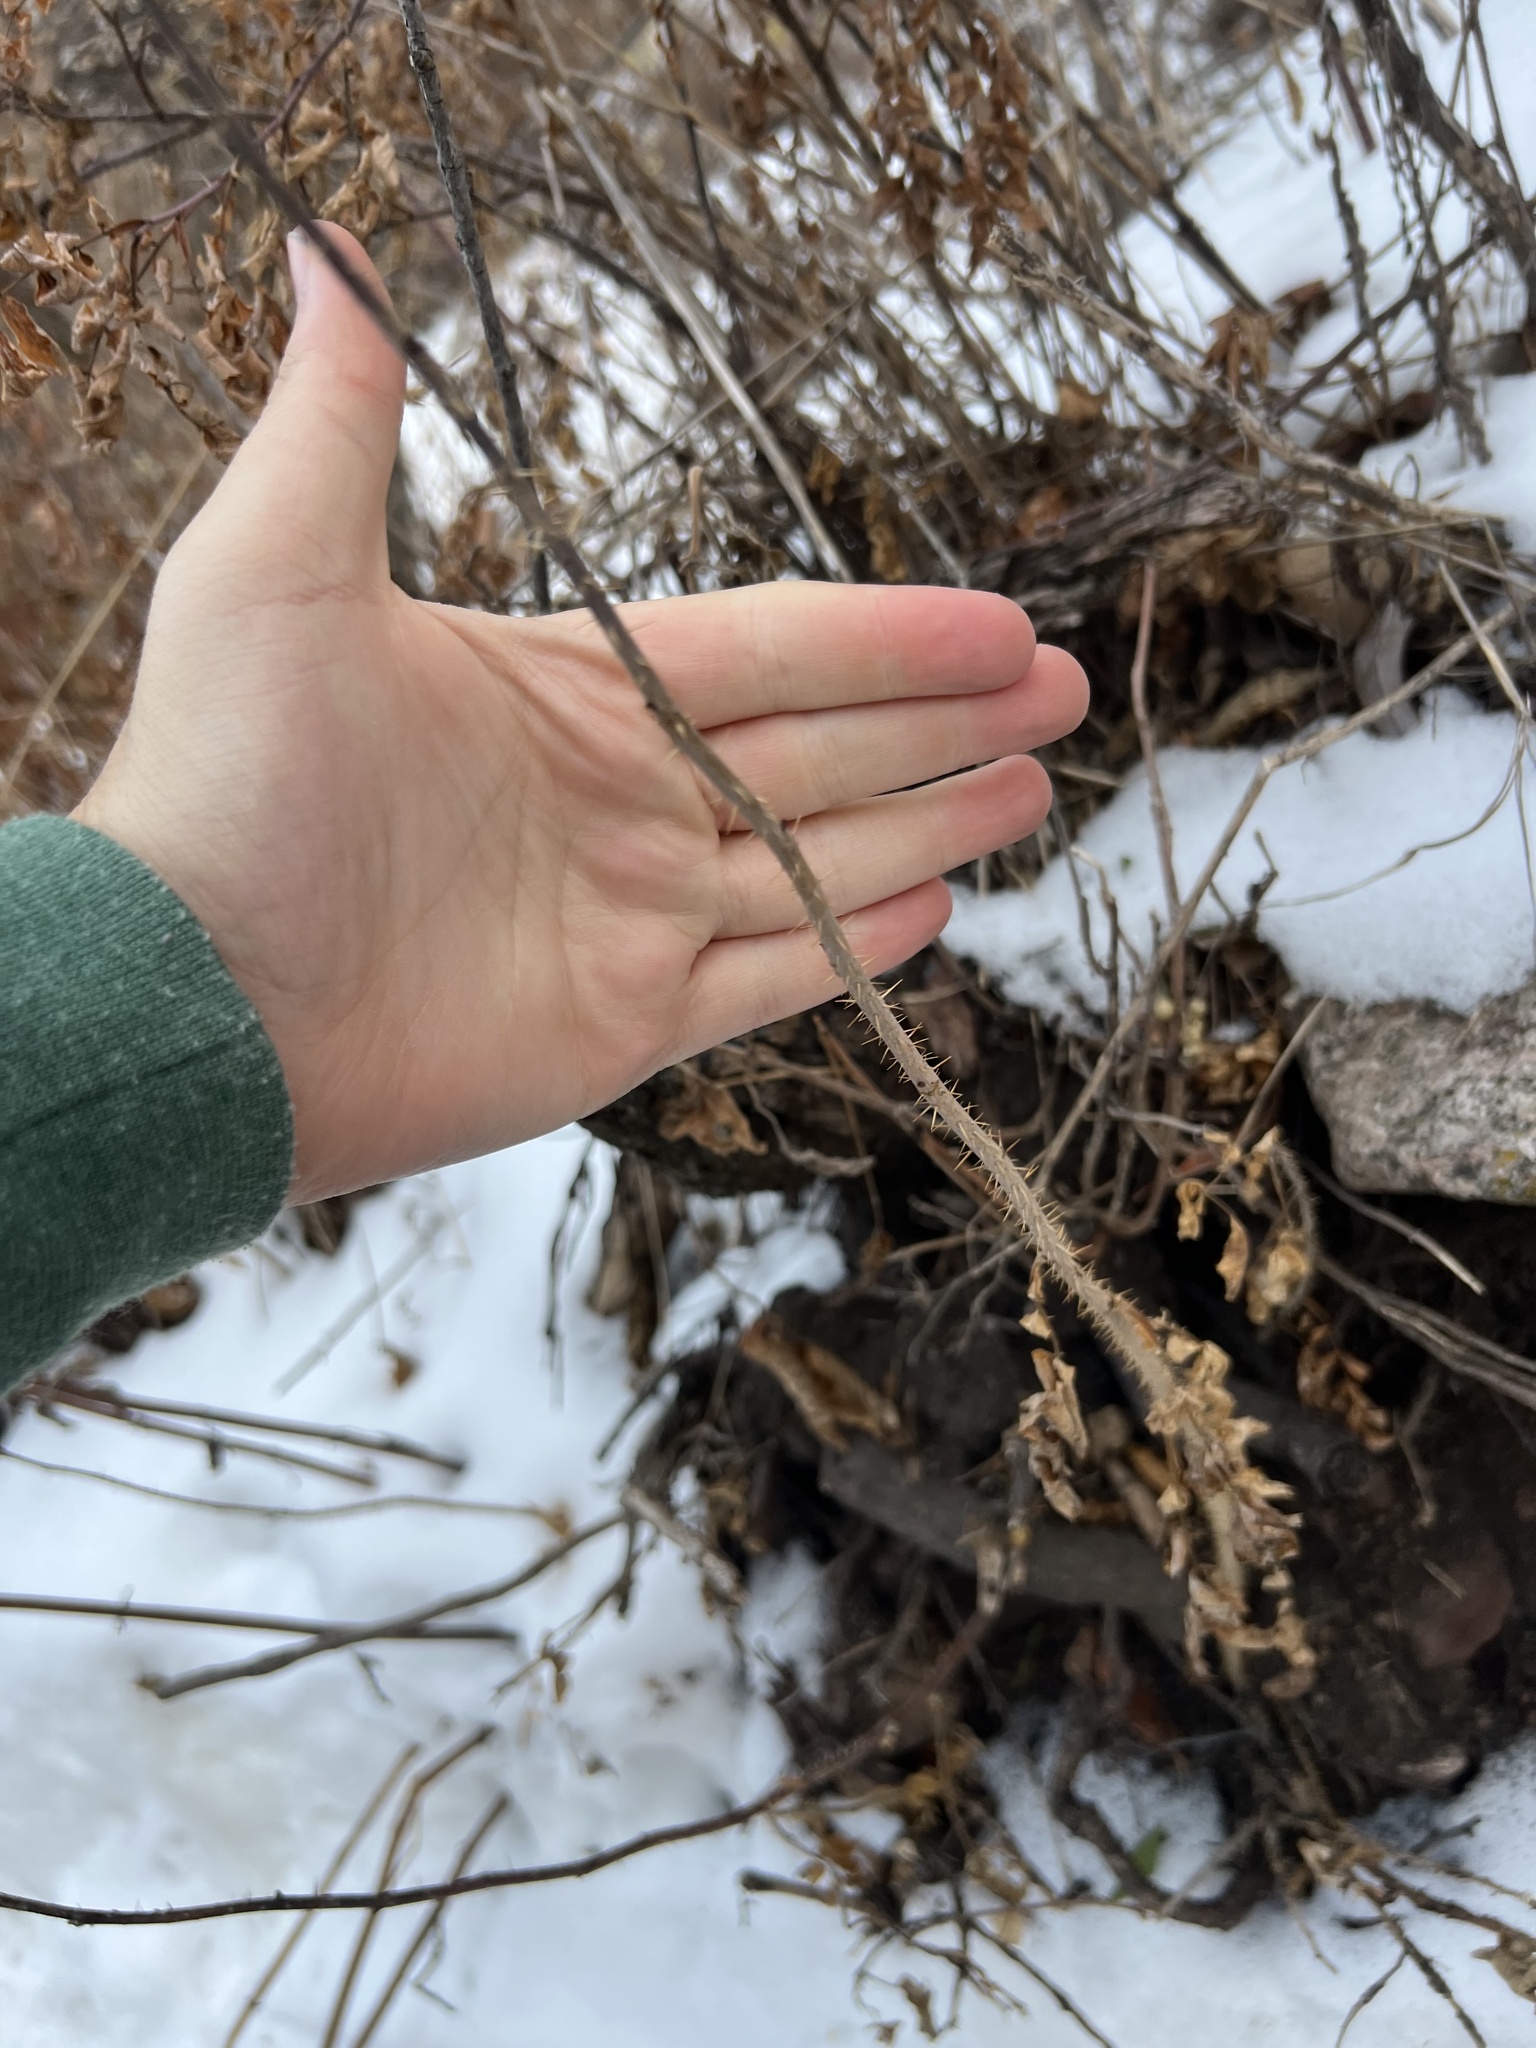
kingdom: Plantae
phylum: Tracheophyta
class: Magnoliopsida
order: Rosales
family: Rosaceae
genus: Rosa
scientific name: Rosa woodsii
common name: Woods's rose
